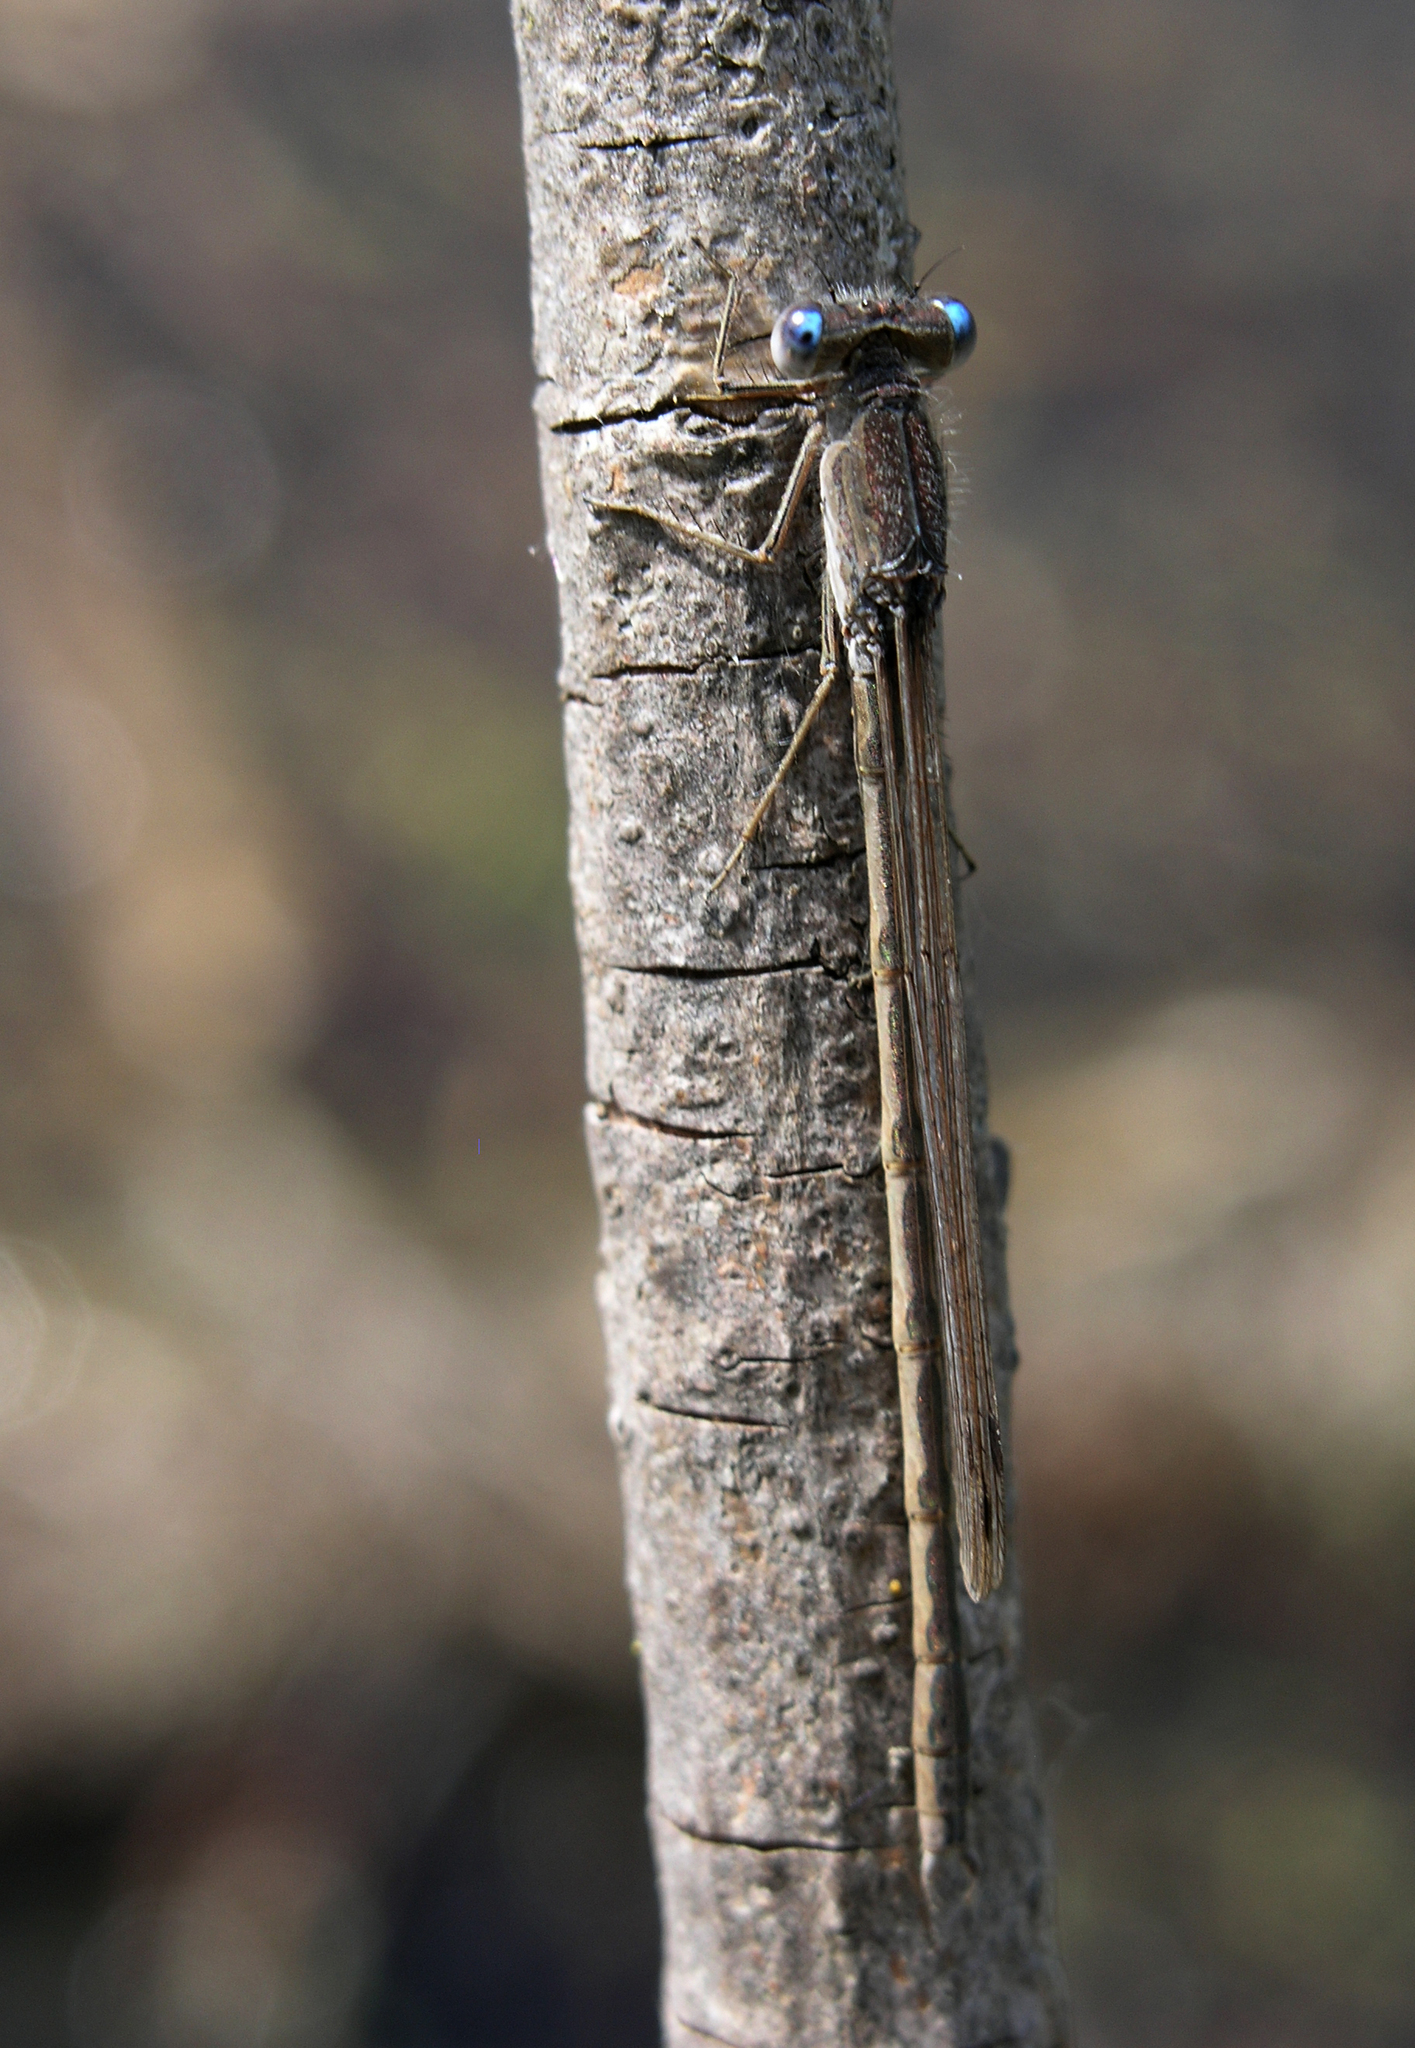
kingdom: Animalia
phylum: Arthropoda
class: Insecta
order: Odonata
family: Lestidae
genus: Sympecma
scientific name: Sympecma paedisca
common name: Siberian winter damsel
